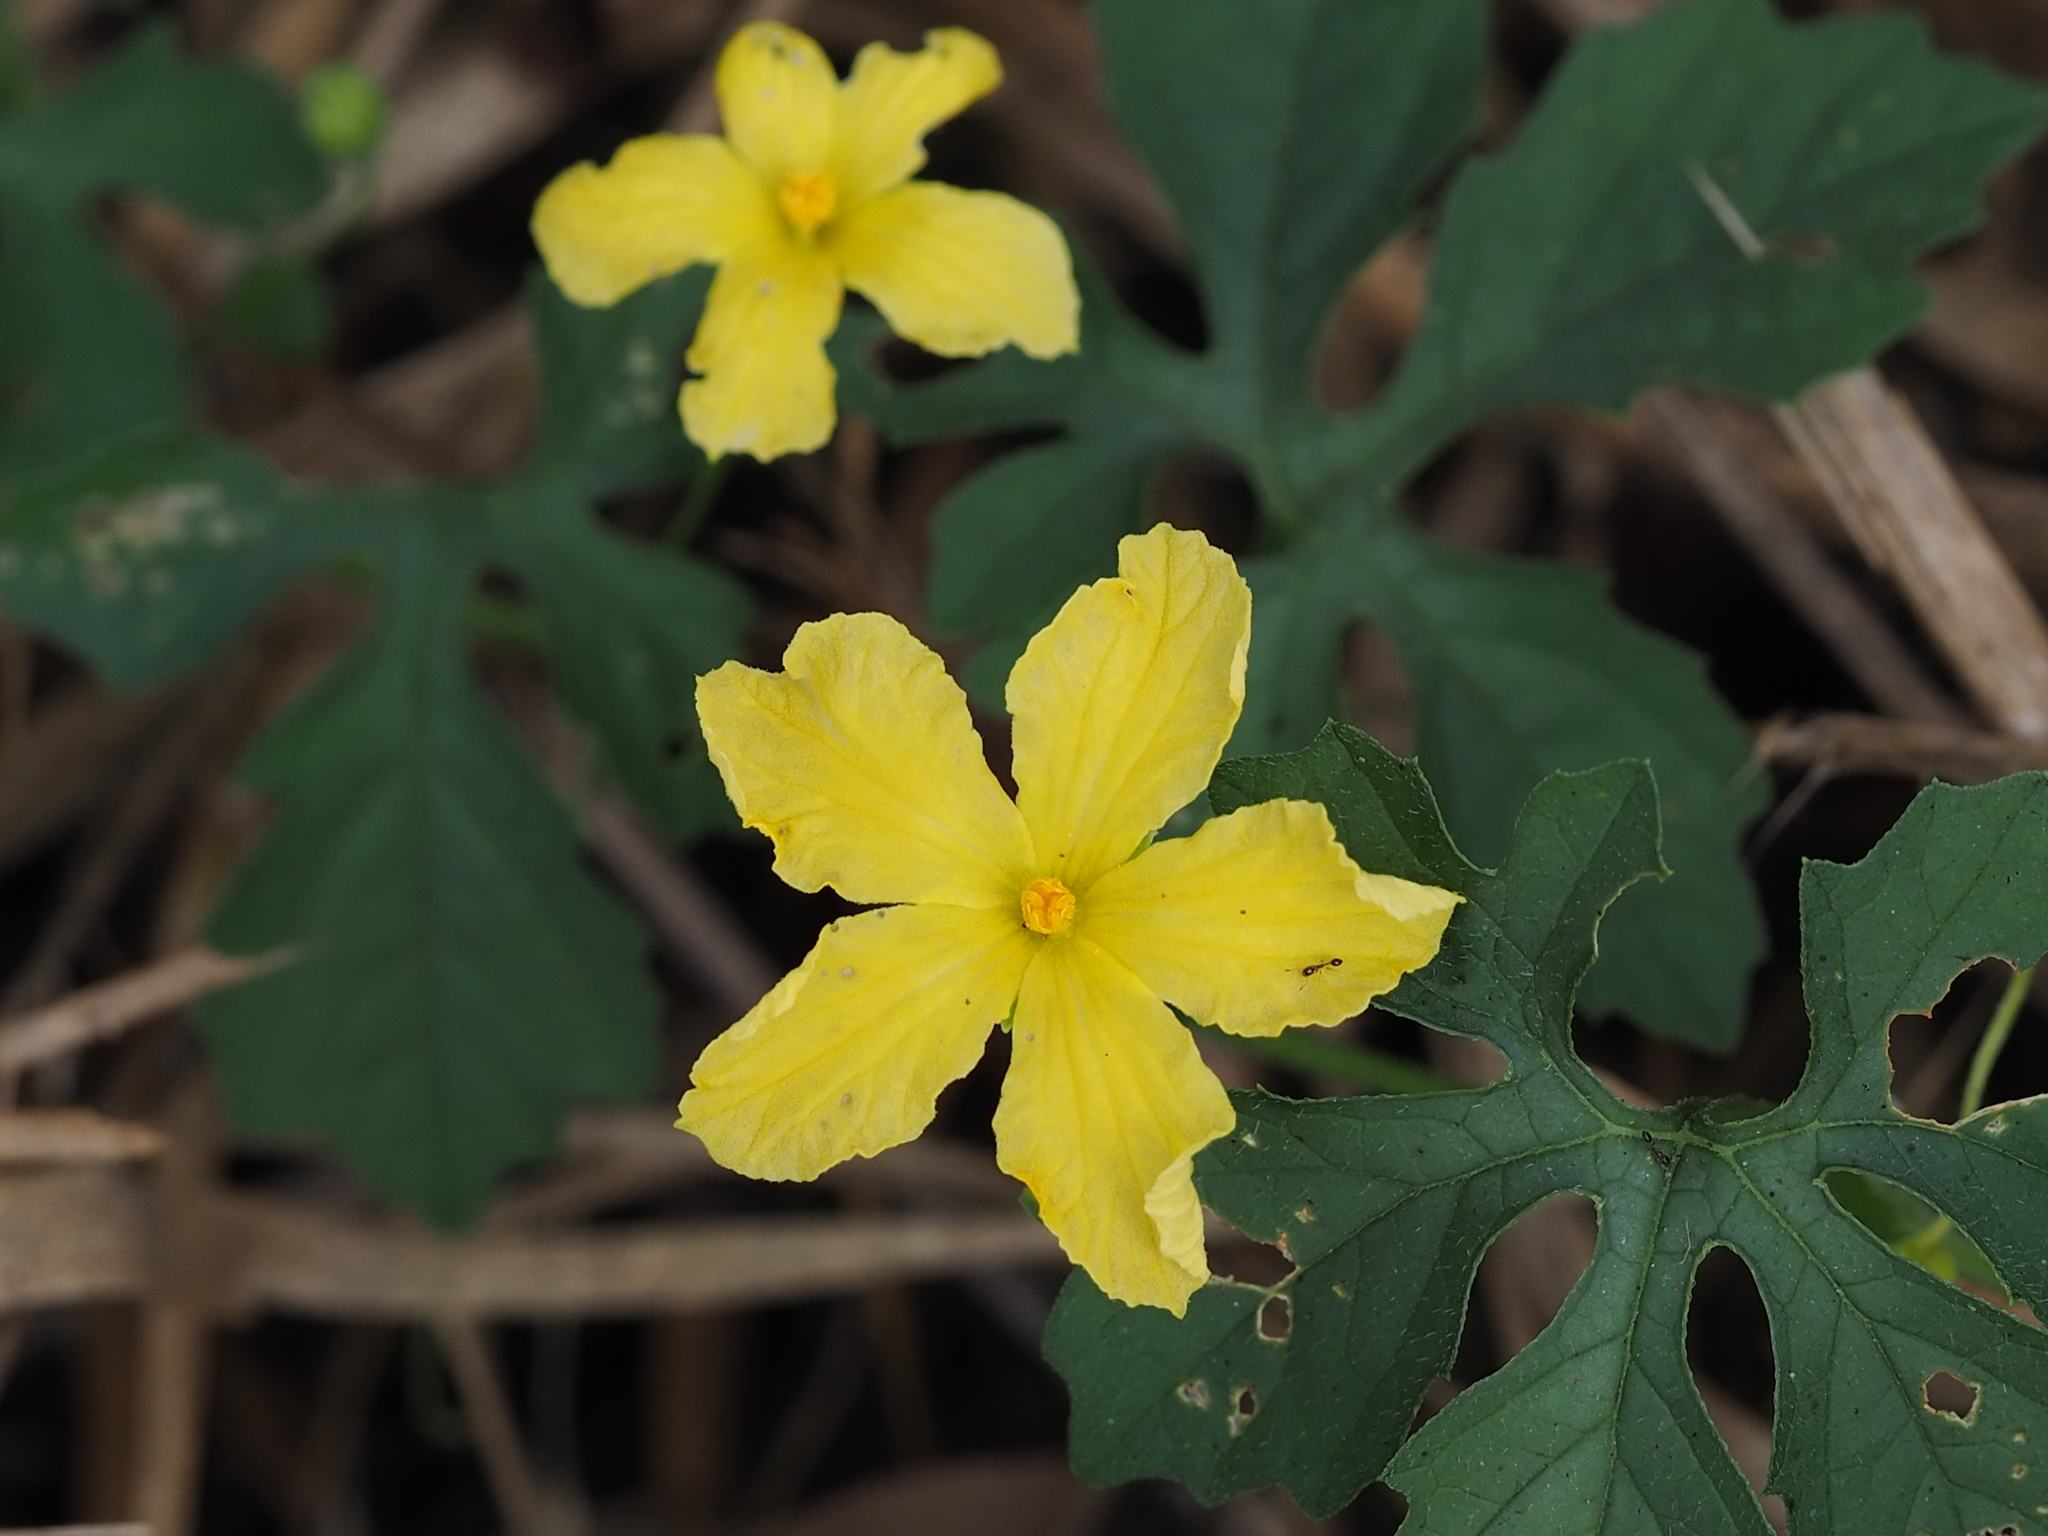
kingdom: Plantae
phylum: Tracheophyta
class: Magnoliopsida
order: Cucurbitales
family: Cucurbitaceae
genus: Momordica
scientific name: Momordica charantia
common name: Balsampear
